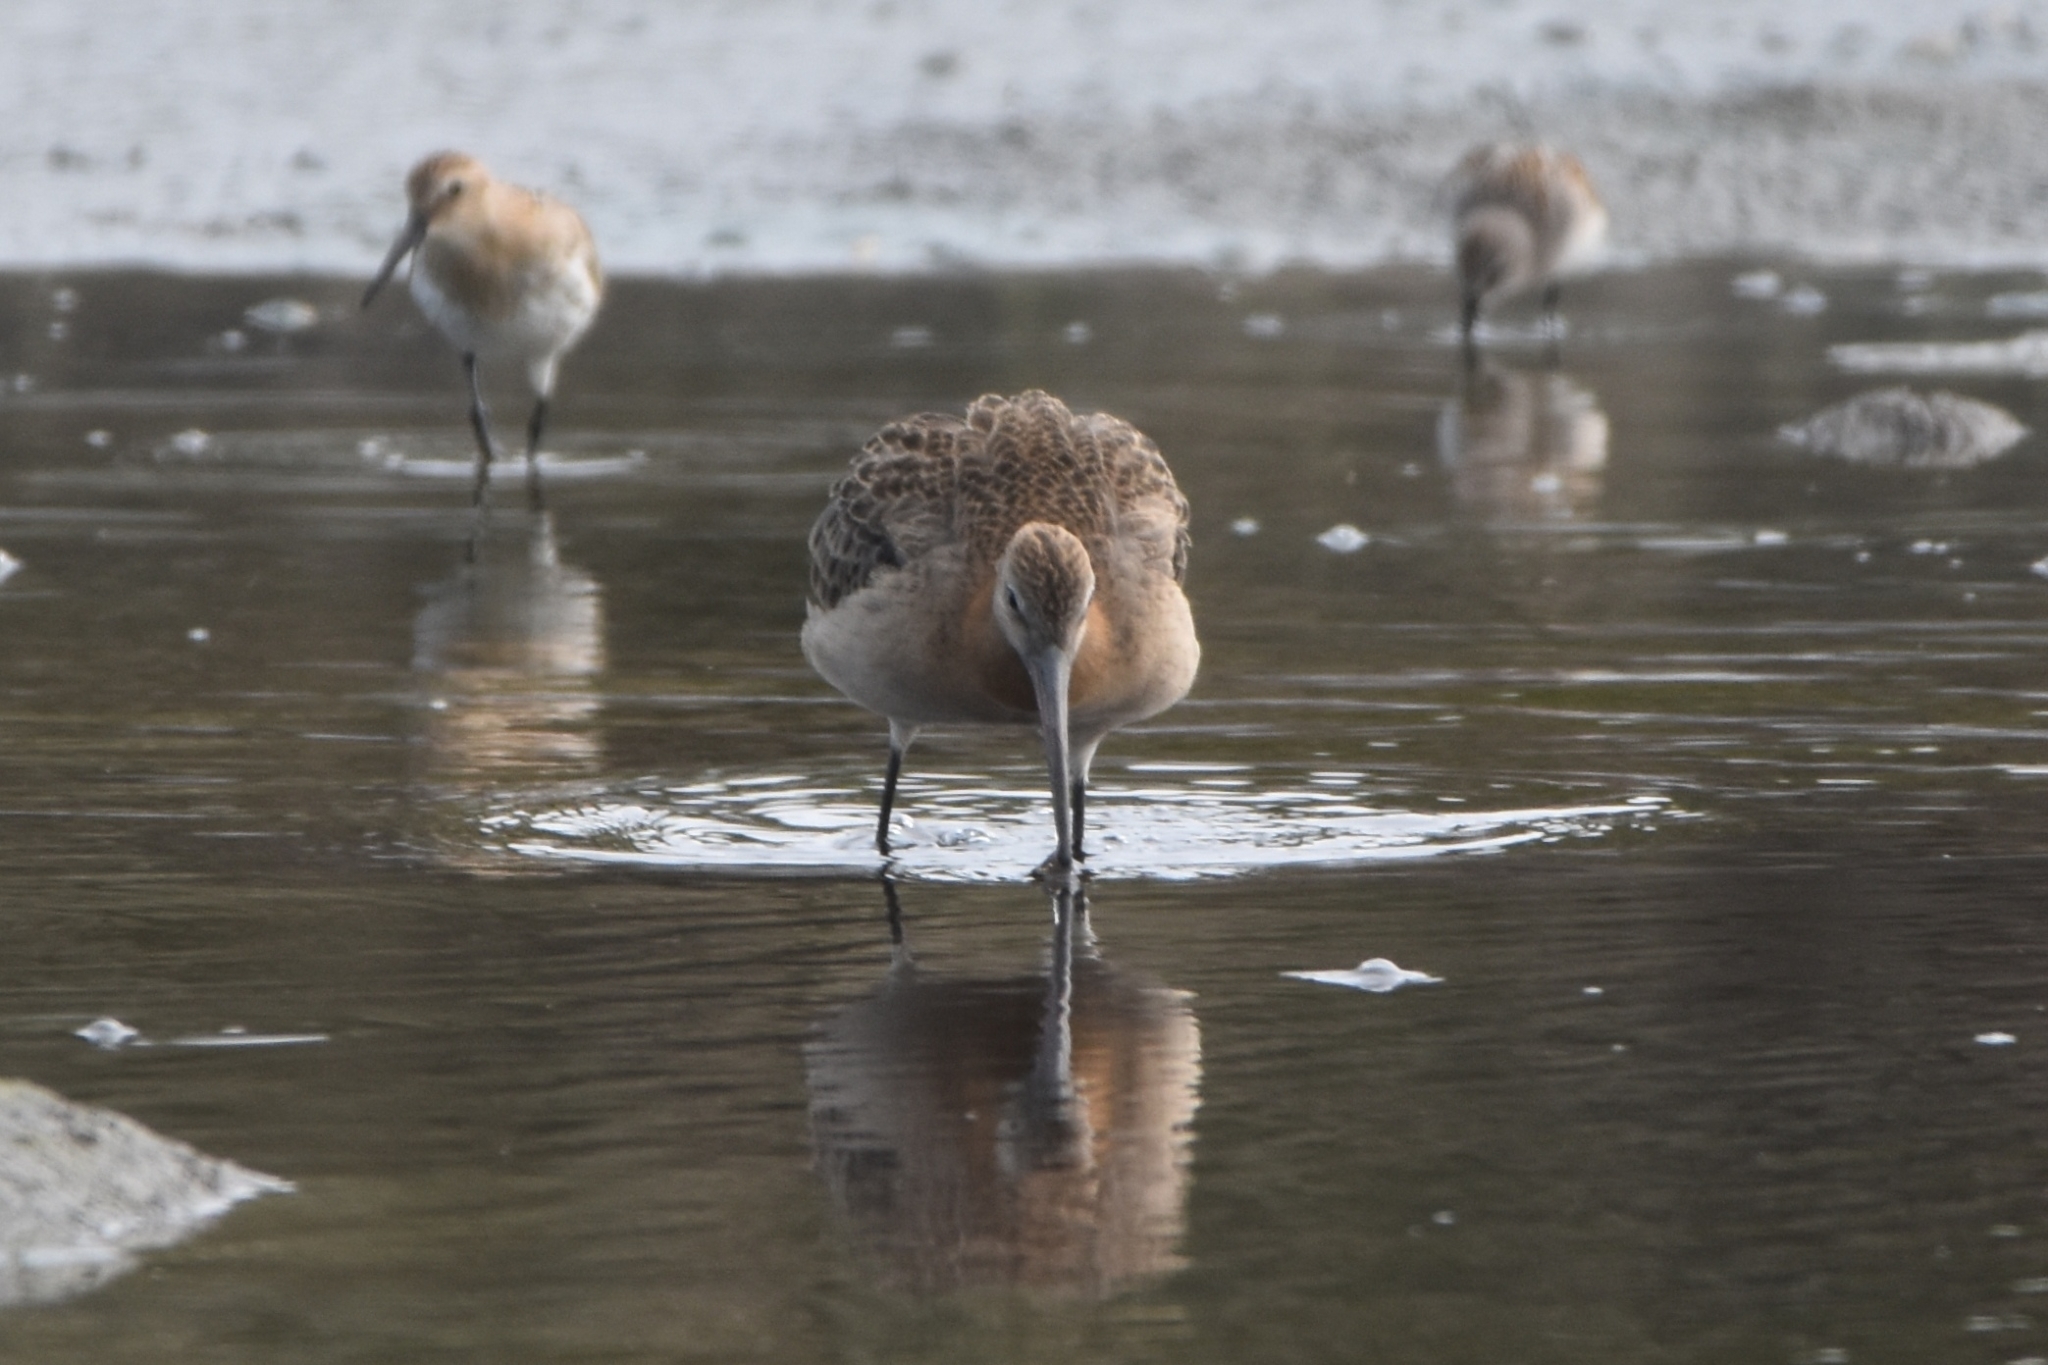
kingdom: Animalia
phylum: Chordata
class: Aves
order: Charadriiformes
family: Scolopacidae
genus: Limosa
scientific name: Limosa limosa
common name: Black-tailed godwit
